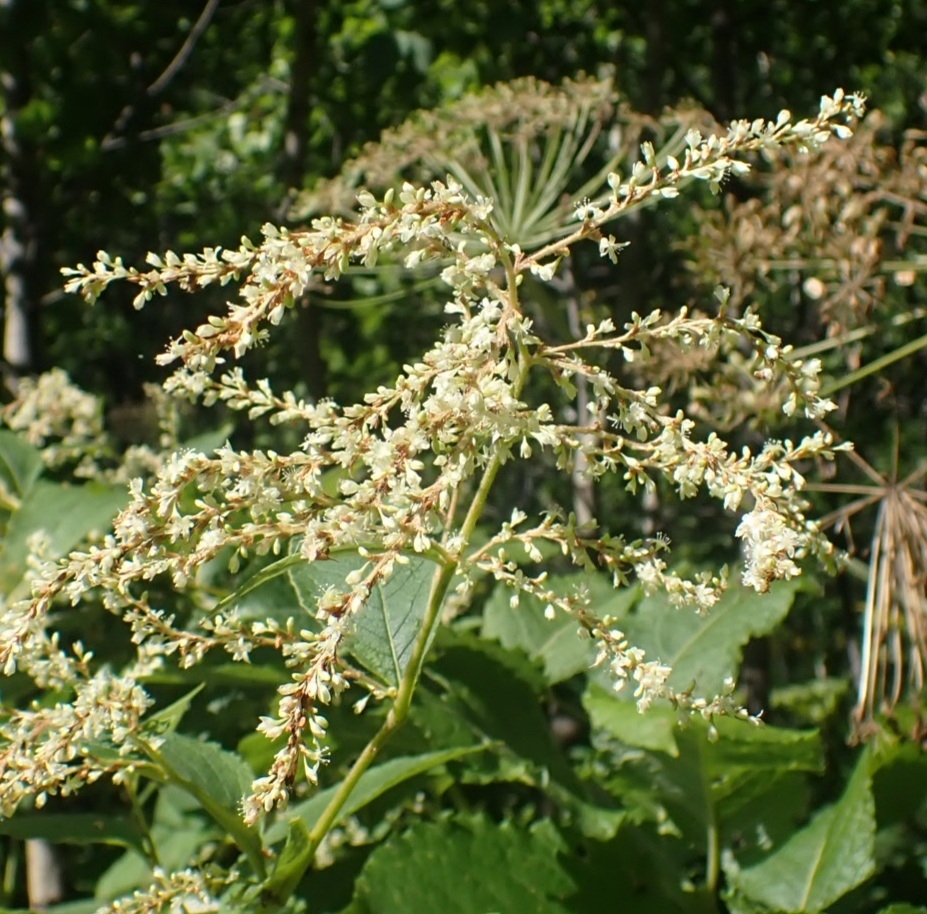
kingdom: Plantae
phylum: Tracheophyta
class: Magnoliopsida
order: Caryophyllales
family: Polygonaceae
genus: Koenigia
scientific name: Koenigia weyrichii
